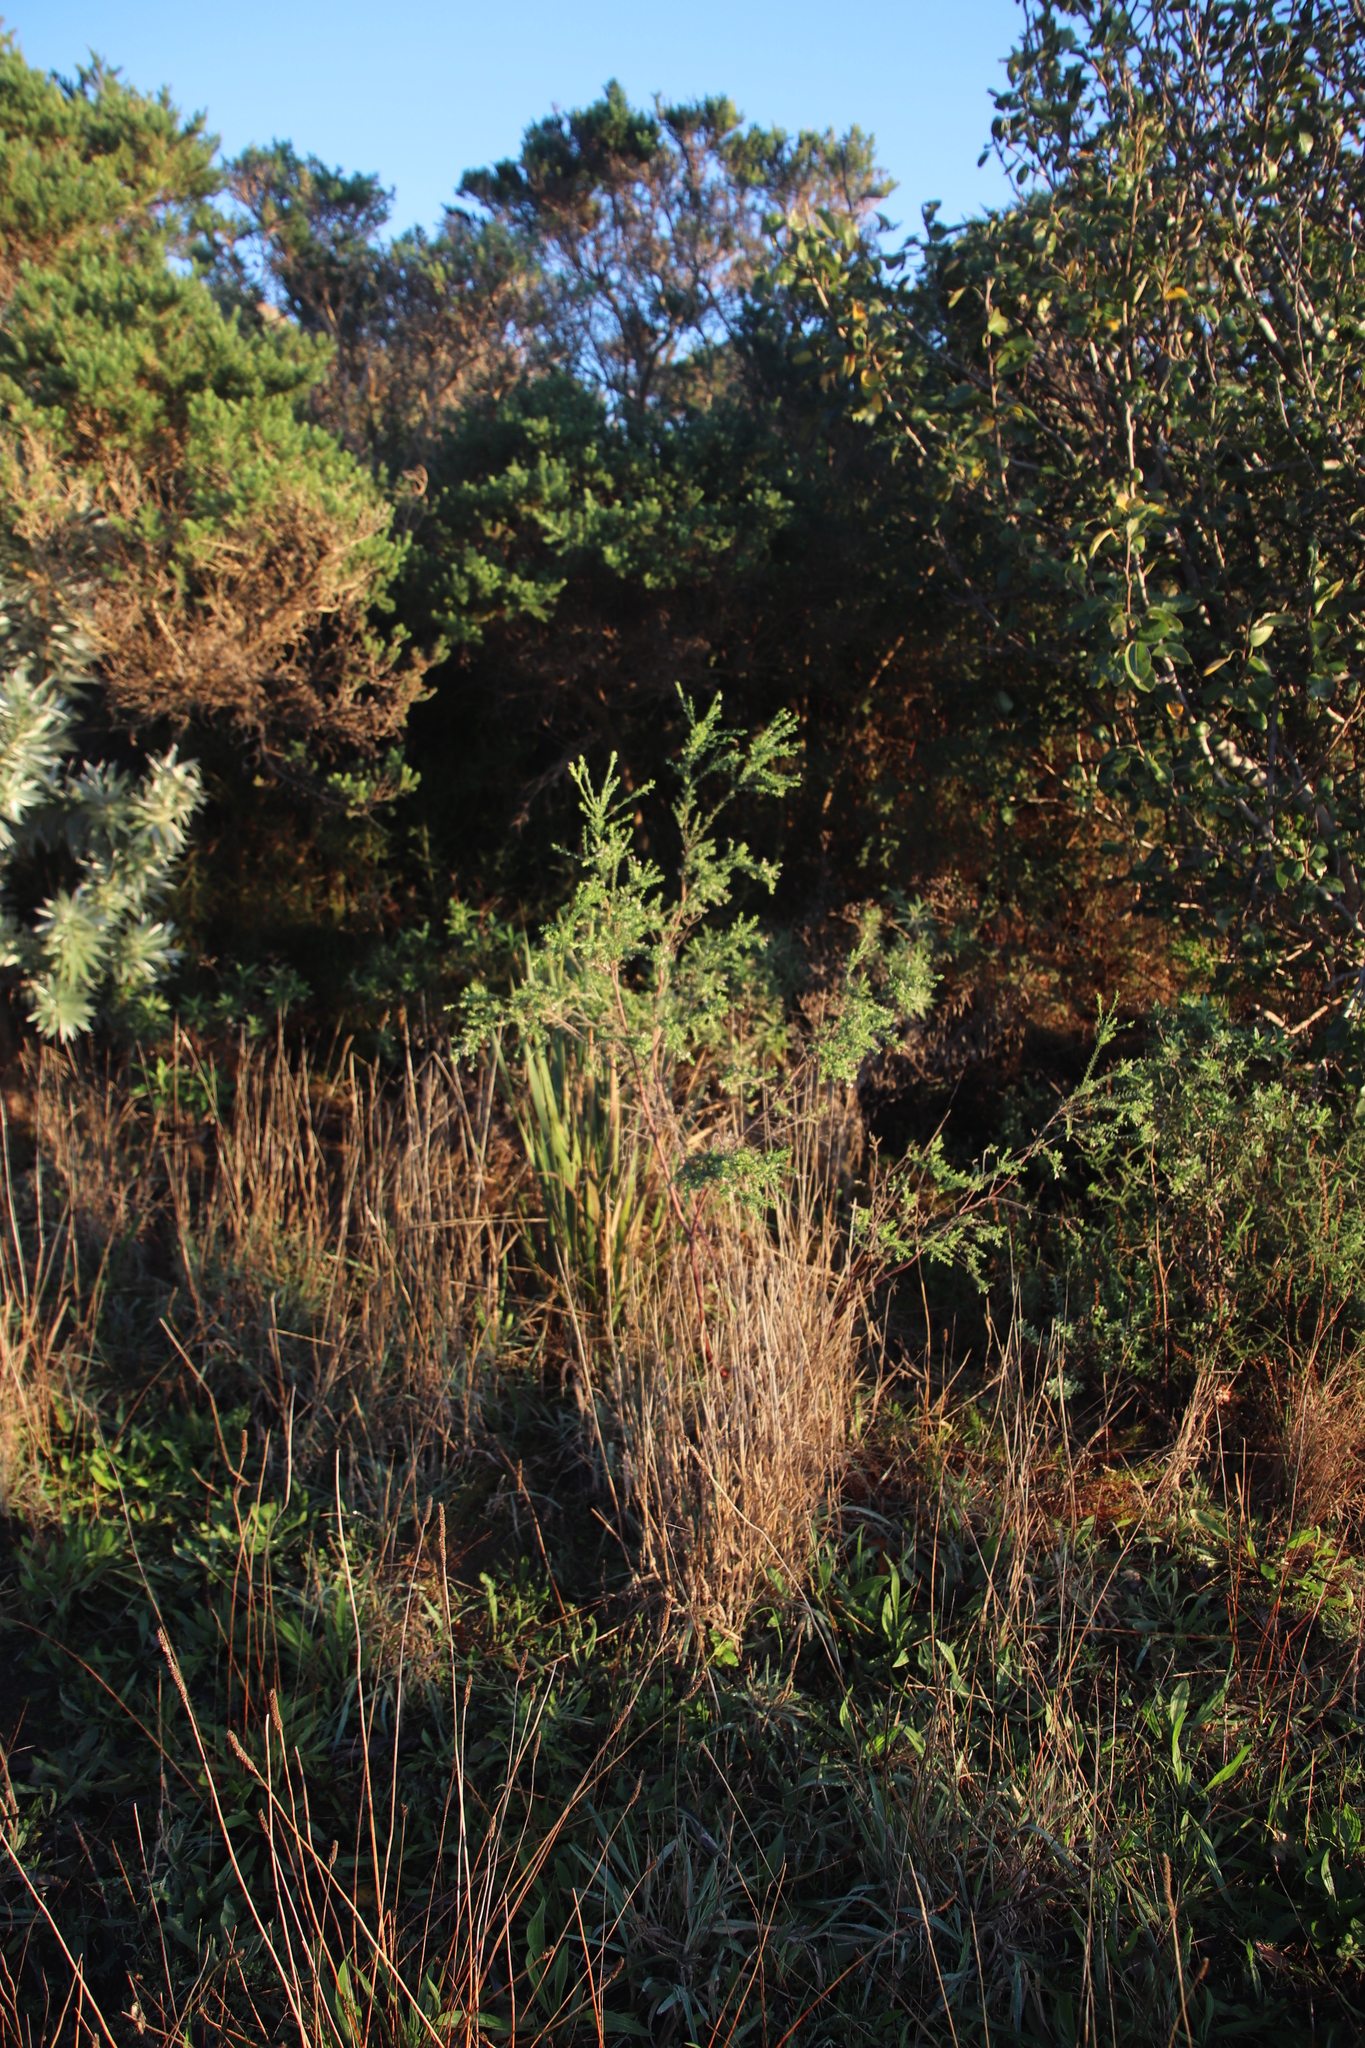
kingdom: Plantae
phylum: Tracheophyta
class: Magnoliopsida
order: Malvales
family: Thymelaeaceae
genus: Gnidia
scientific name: Gnidia sericea
